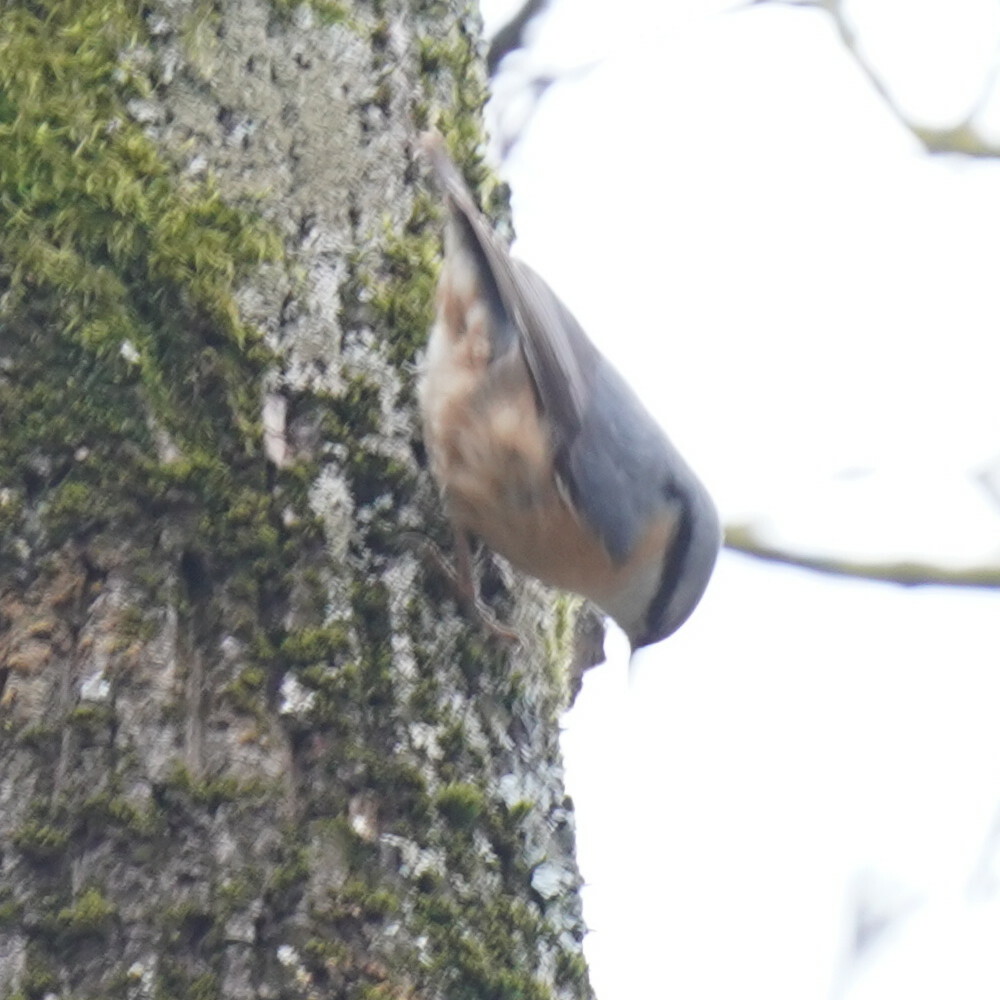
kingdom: Animalia
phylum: Chordata
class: Aves
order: Passeriformes
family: Sittidae
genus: Sitta
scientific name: Sitta europaea
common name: Eurasian nuthatch
